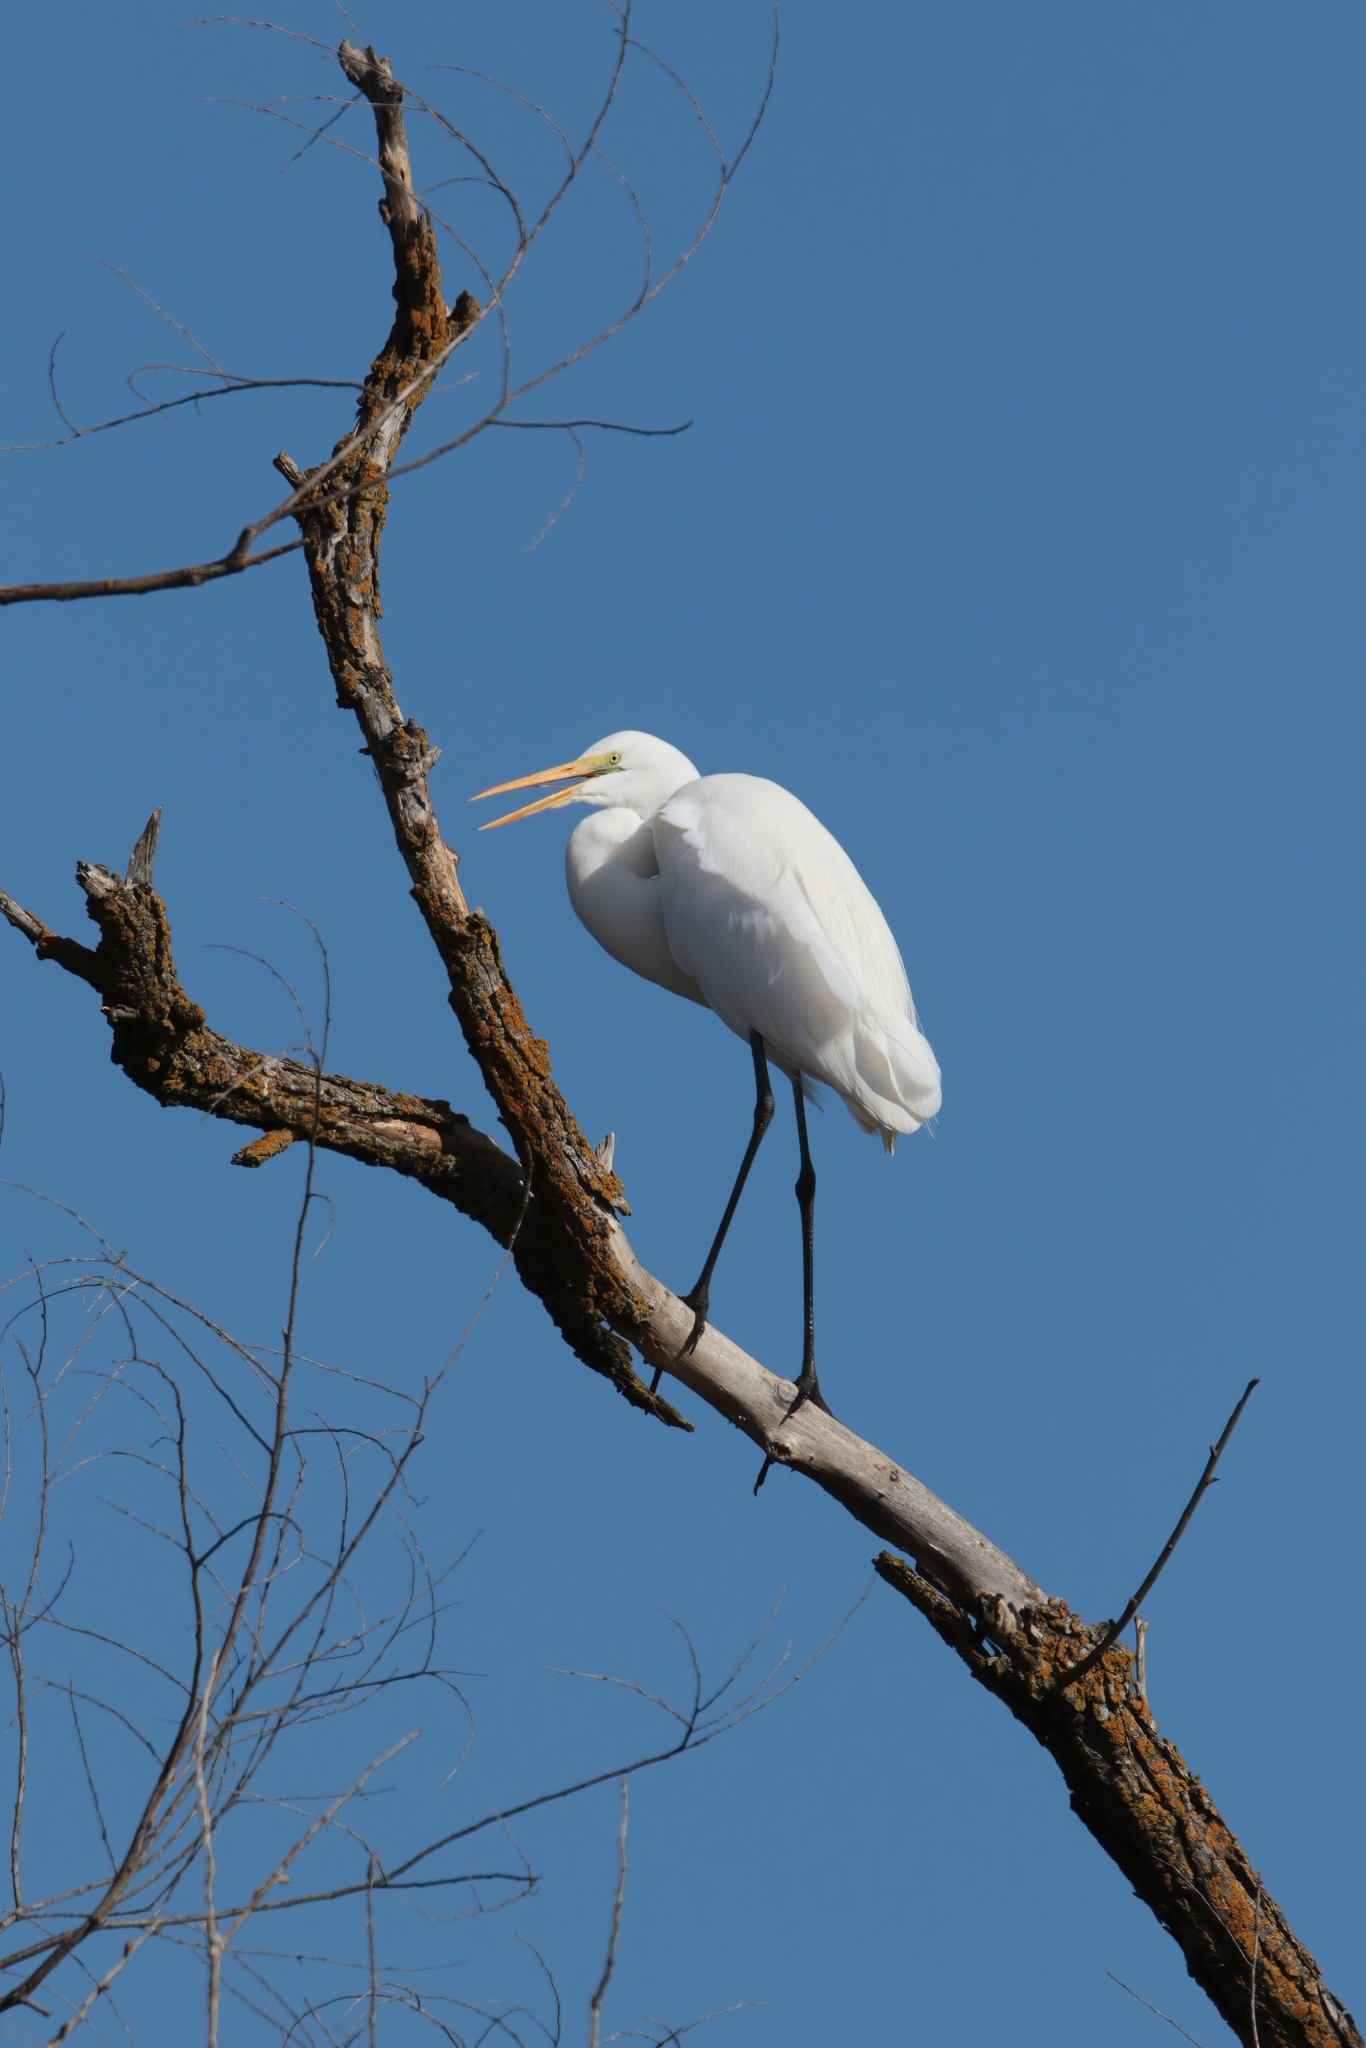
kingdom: Animalia
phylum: Chordata
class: Aves
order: Pelecaniformes
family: Ardeidae
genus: Ardea
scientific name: Ardea alba
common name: Great egret
